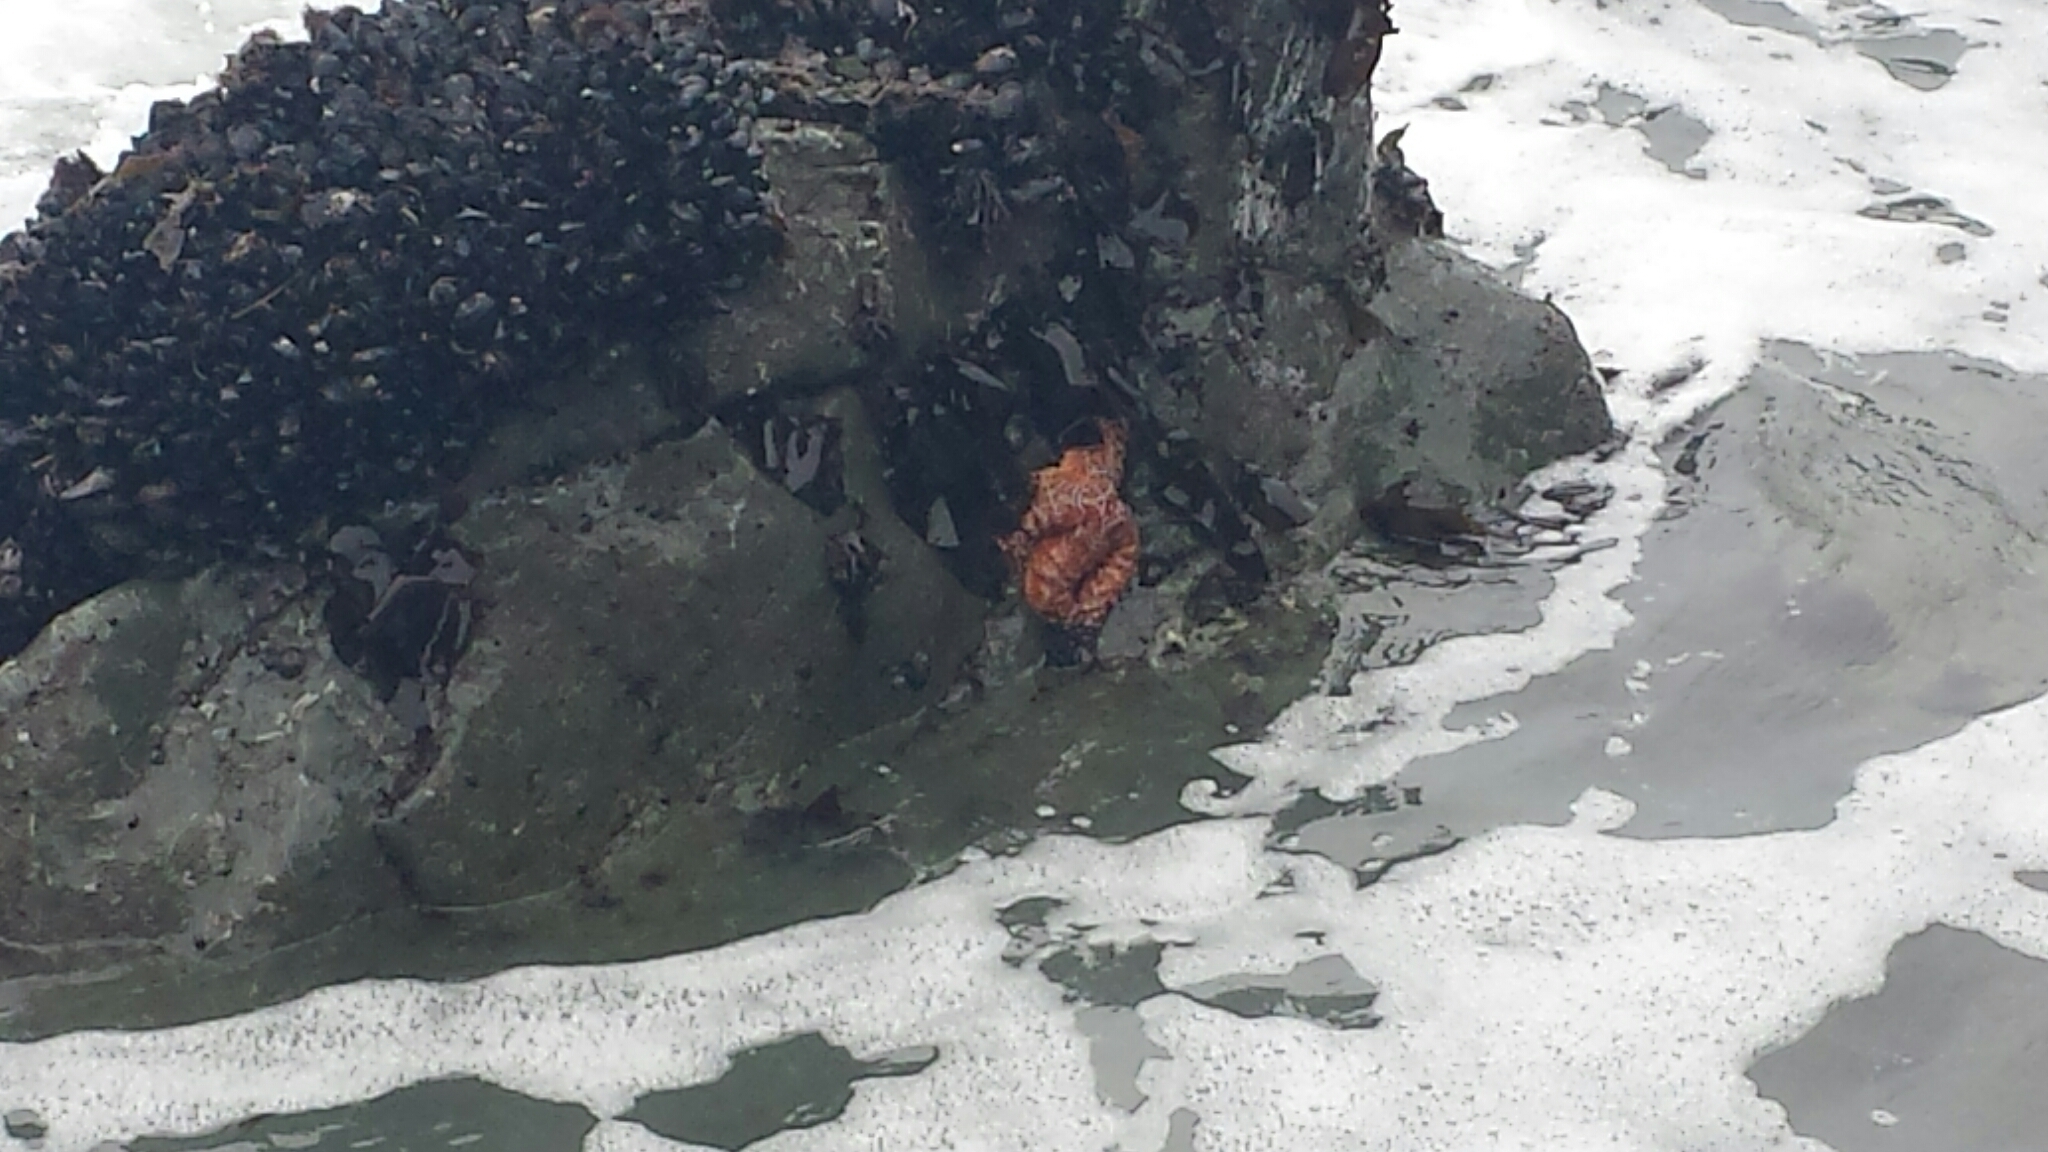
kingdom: Animalia
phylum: Echinodermata
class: Asteroidea
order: Forcipulatida
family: Asteriidae
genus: Pisaster
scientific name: Pisaster ochraceus
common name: Ochre stars
